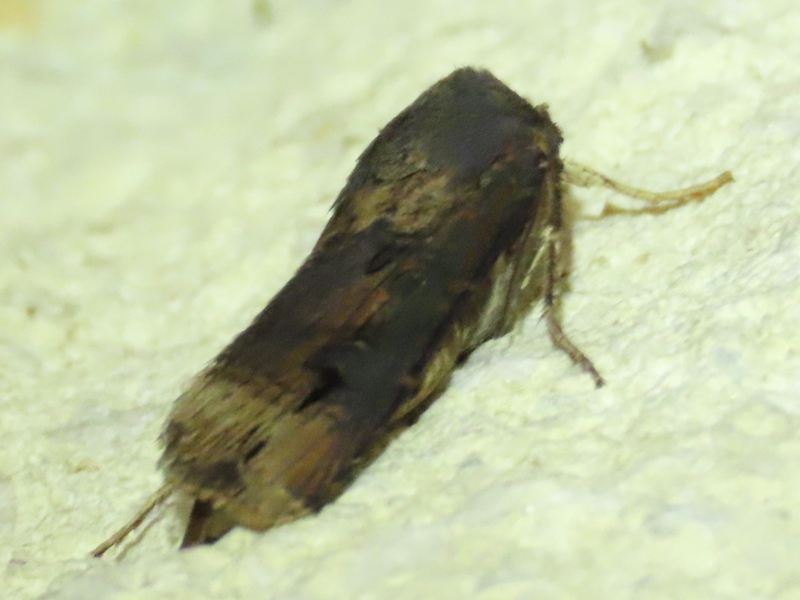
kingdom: Animalia
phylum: Arthropoda
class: Insecta
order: Lepidoptera
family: Noctuidae
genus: Agrotis
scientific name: Agrotis ipsilon
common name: Dark sword-grass
